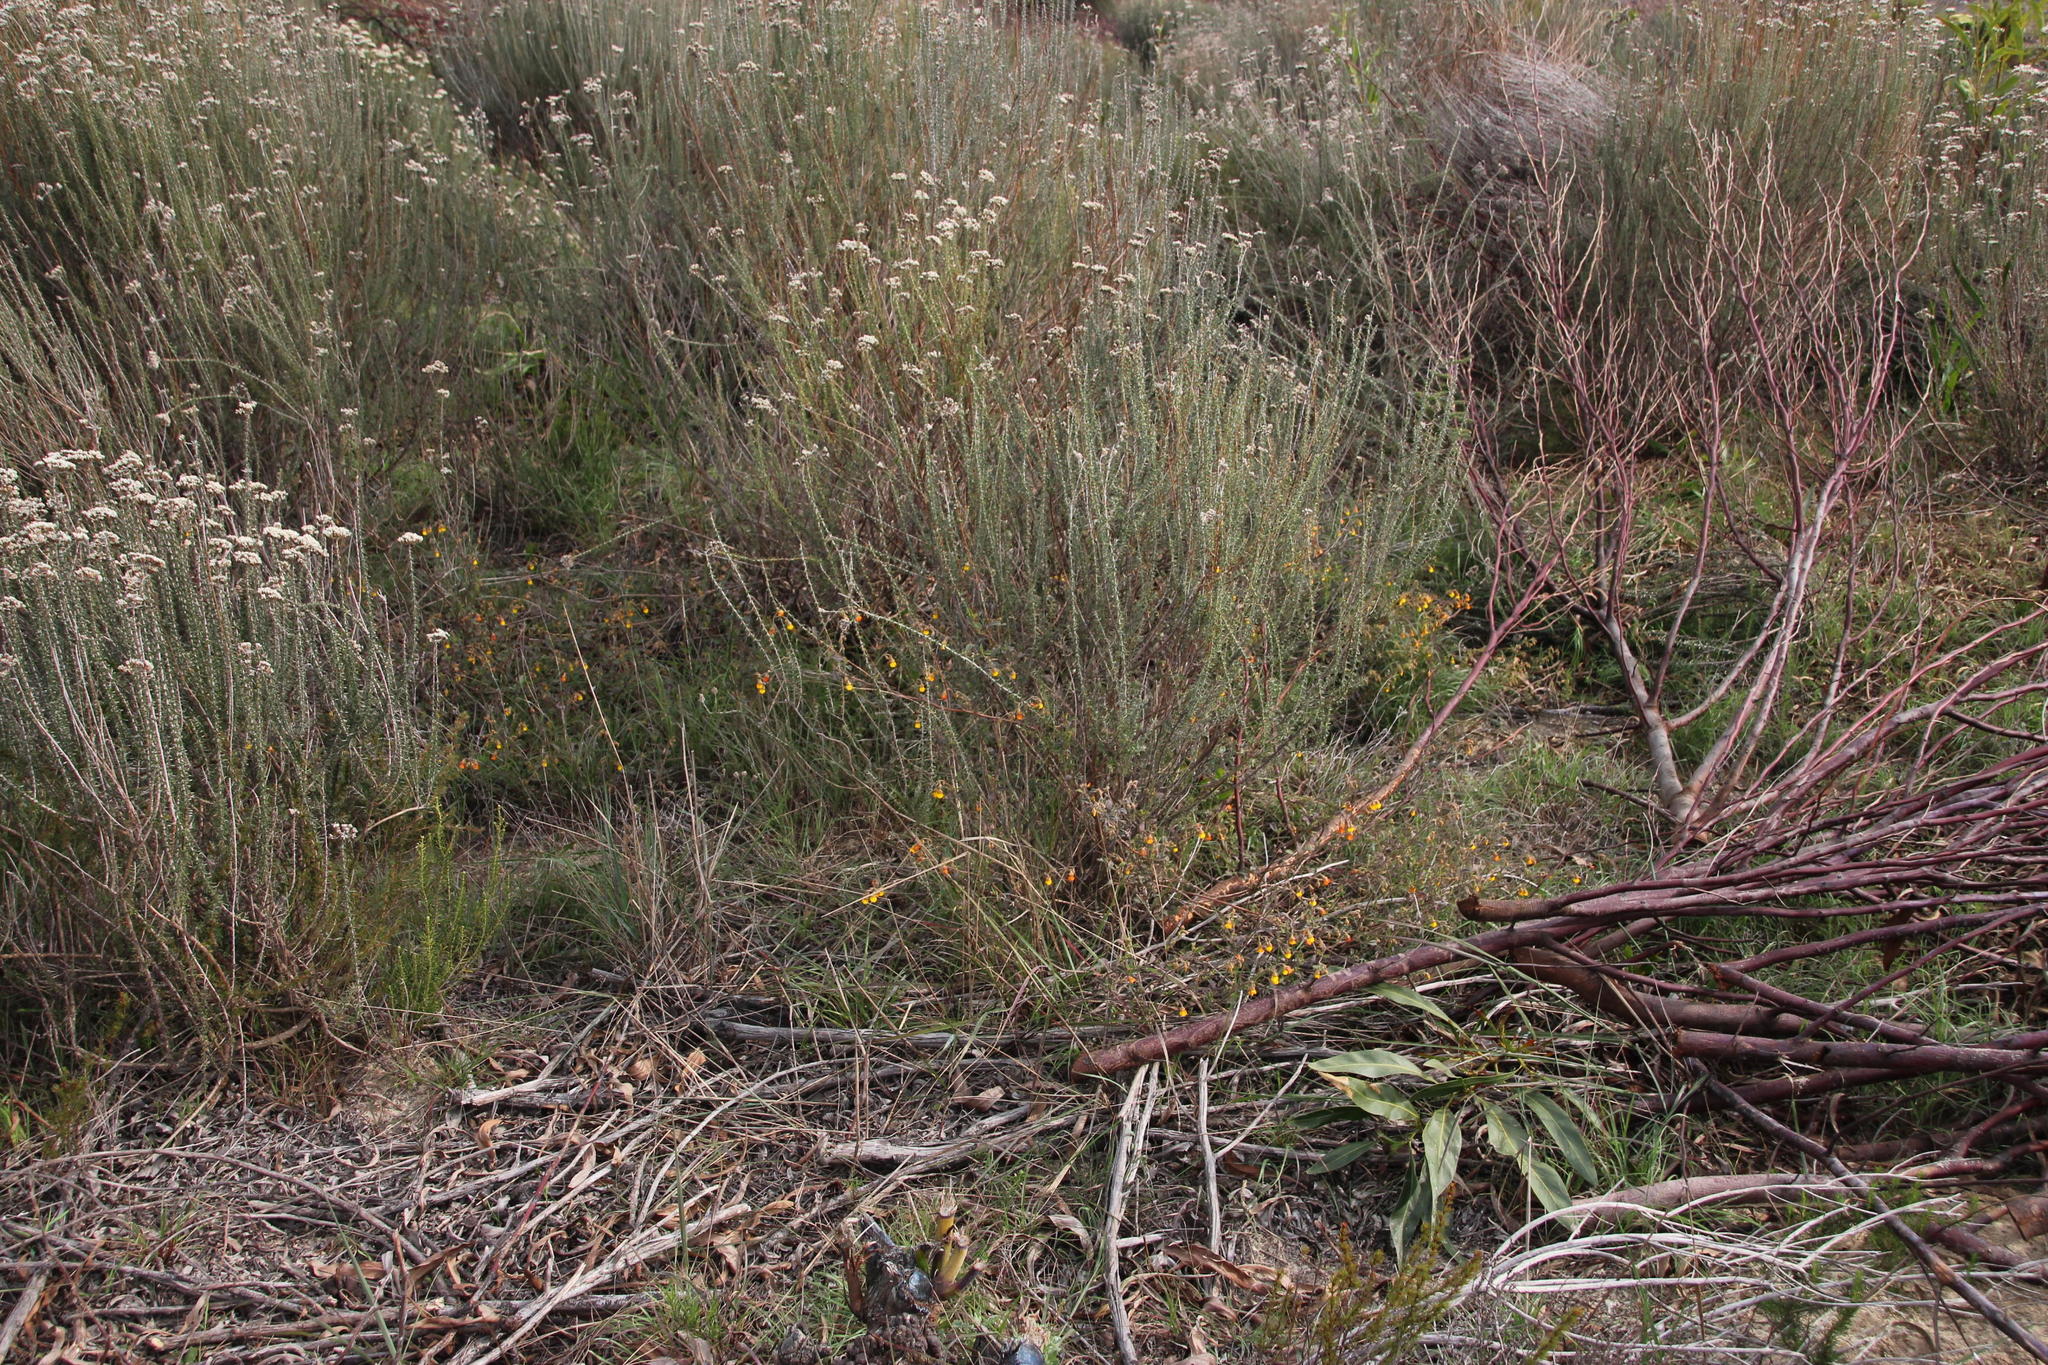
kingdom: Plantae
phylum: Tracheophyta
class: Magnoliopsida
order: Malvales
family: Malvaceae
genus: Hermannia
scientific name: Hermannia multiflora
